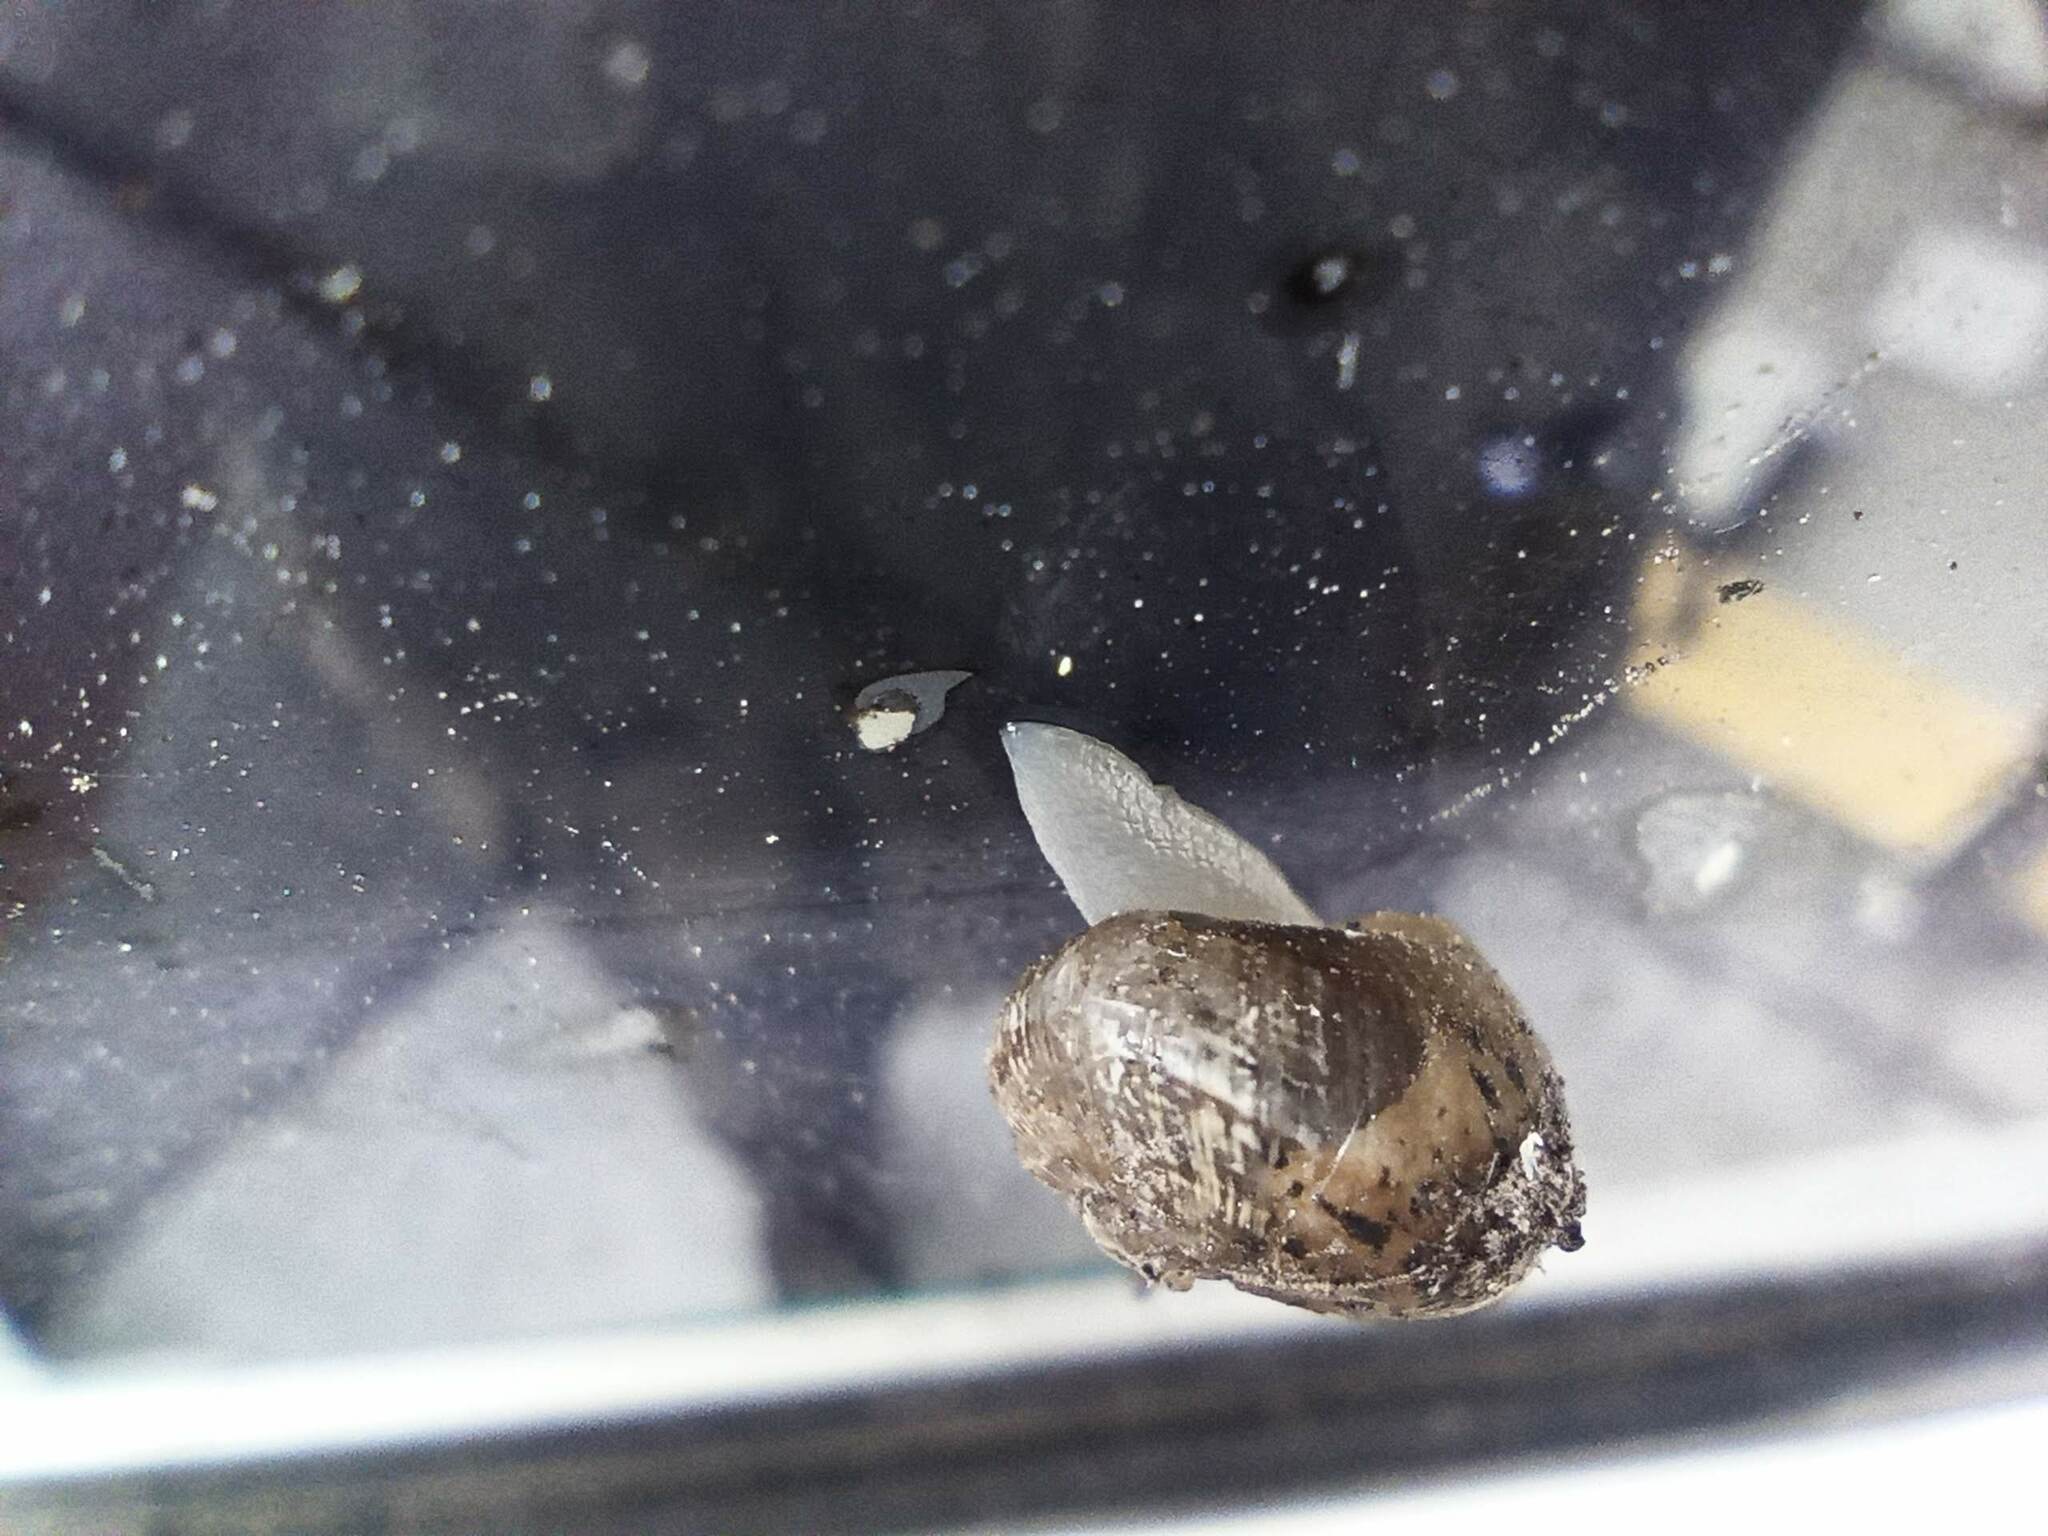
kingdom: Animalia
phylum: Mollusca
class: Gastropoda
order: Stylommatophora
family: Helicidae
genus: Cornu
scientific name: Cornu aspersum
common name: Brown garden snail
